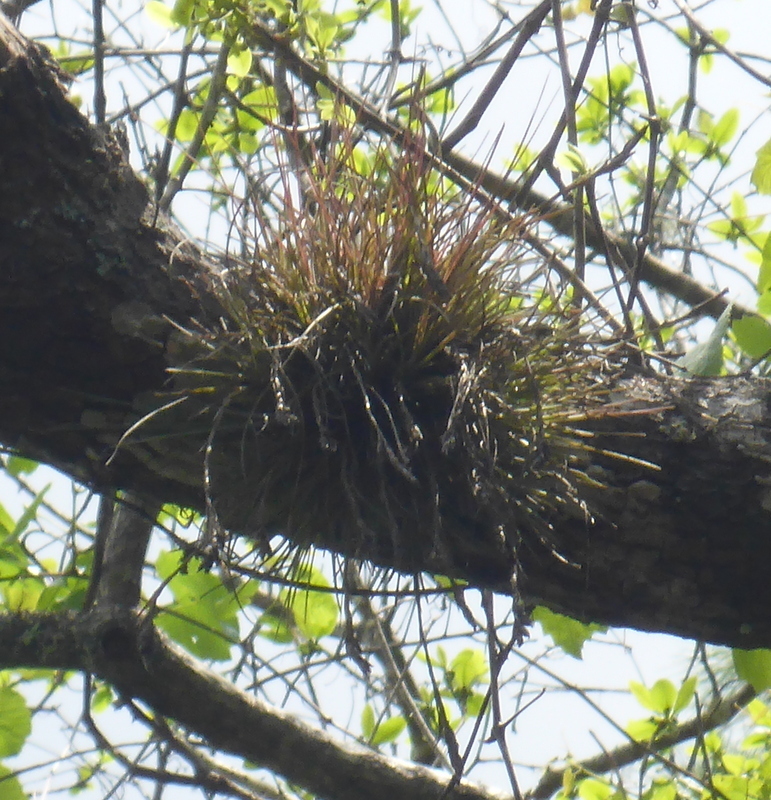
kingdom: Plantae
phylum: Tracheophyta
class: Liliopsida
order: Poales
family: Bromeliaceae
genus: Tillandsia
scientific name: Tillandsia bartramii
